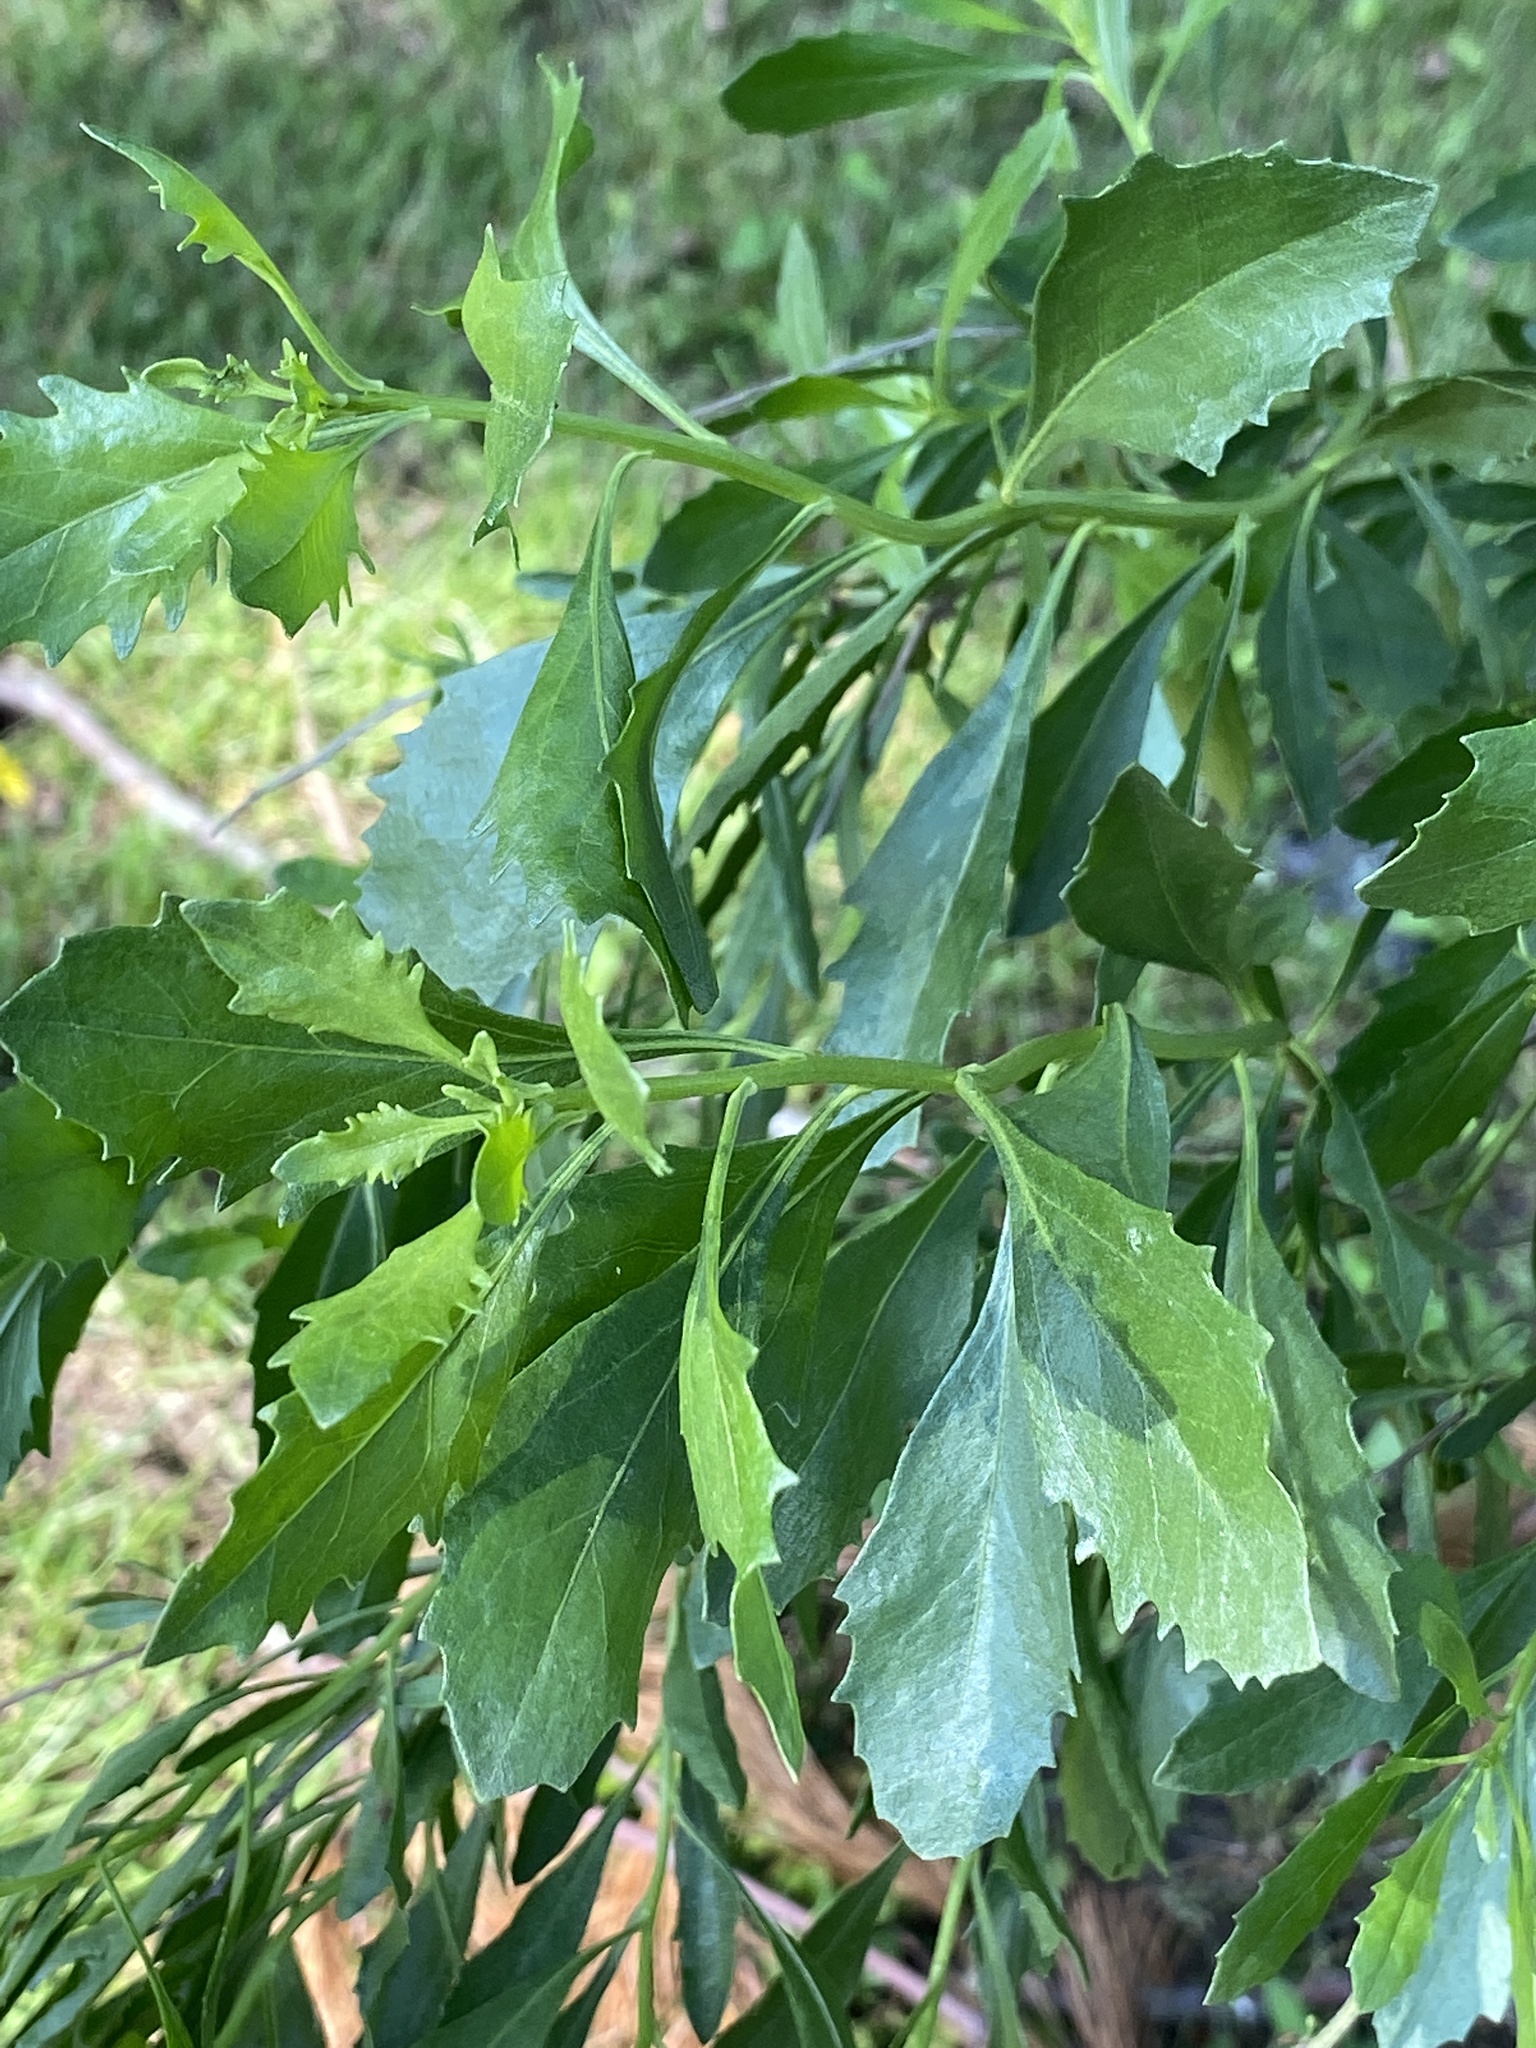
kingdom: Plantae
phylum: Tracheophyta
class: Magnoliopsida
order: Asterales
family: Asteraceae
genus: Baccharis
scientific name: Baccharis halimifolia
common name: Eastern baccharis
